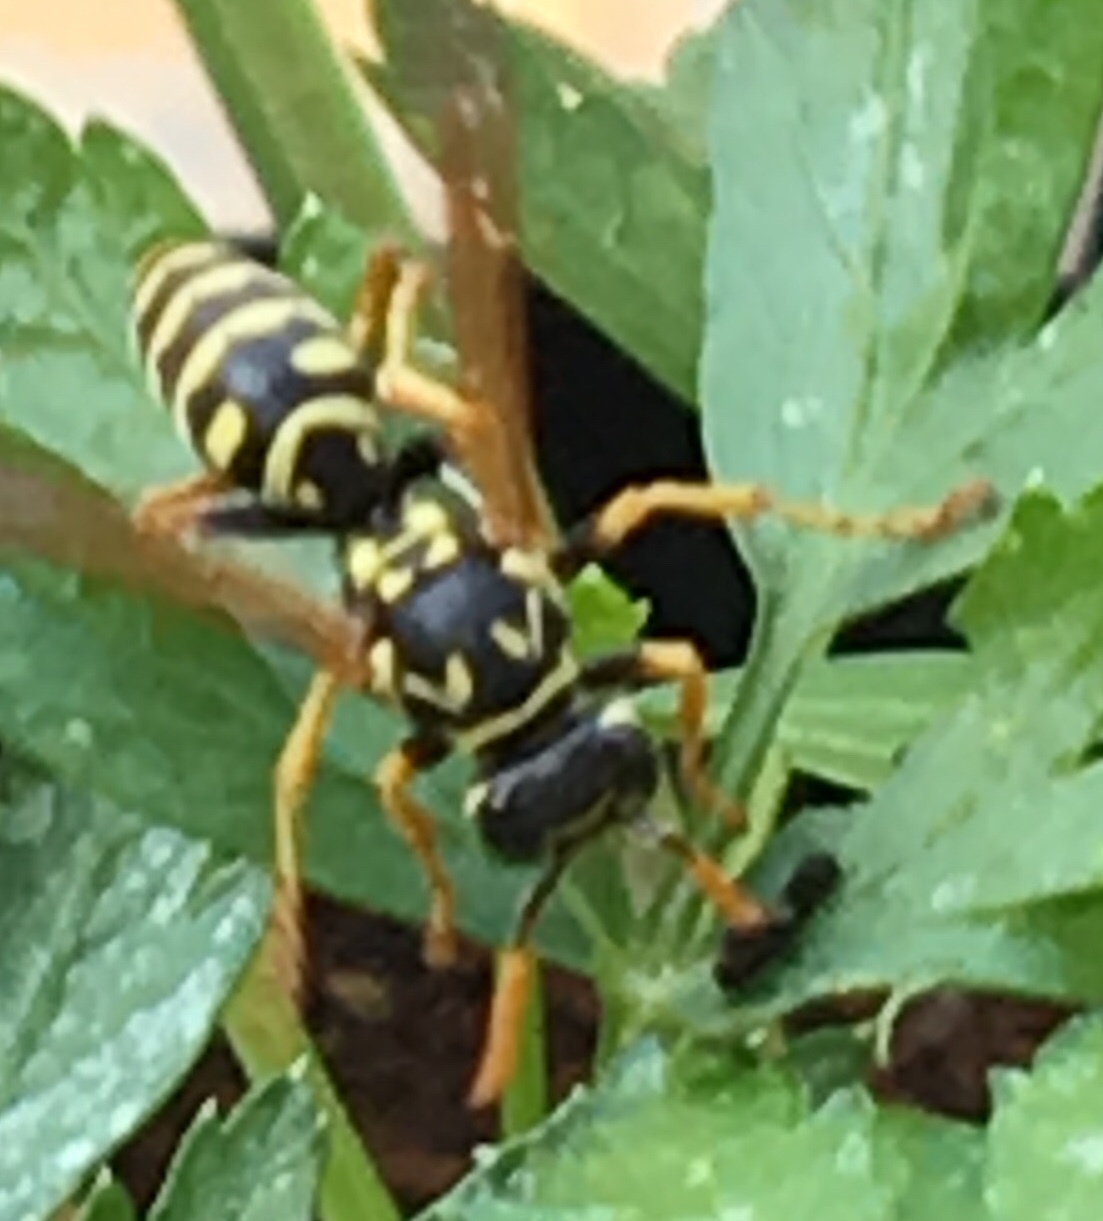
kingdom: Animalia
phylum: Arthropoda
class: Insecta
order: Hymenoptera
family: Eumenidae
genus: Polistes
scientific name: Polistes dominula
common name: Paper wasp
